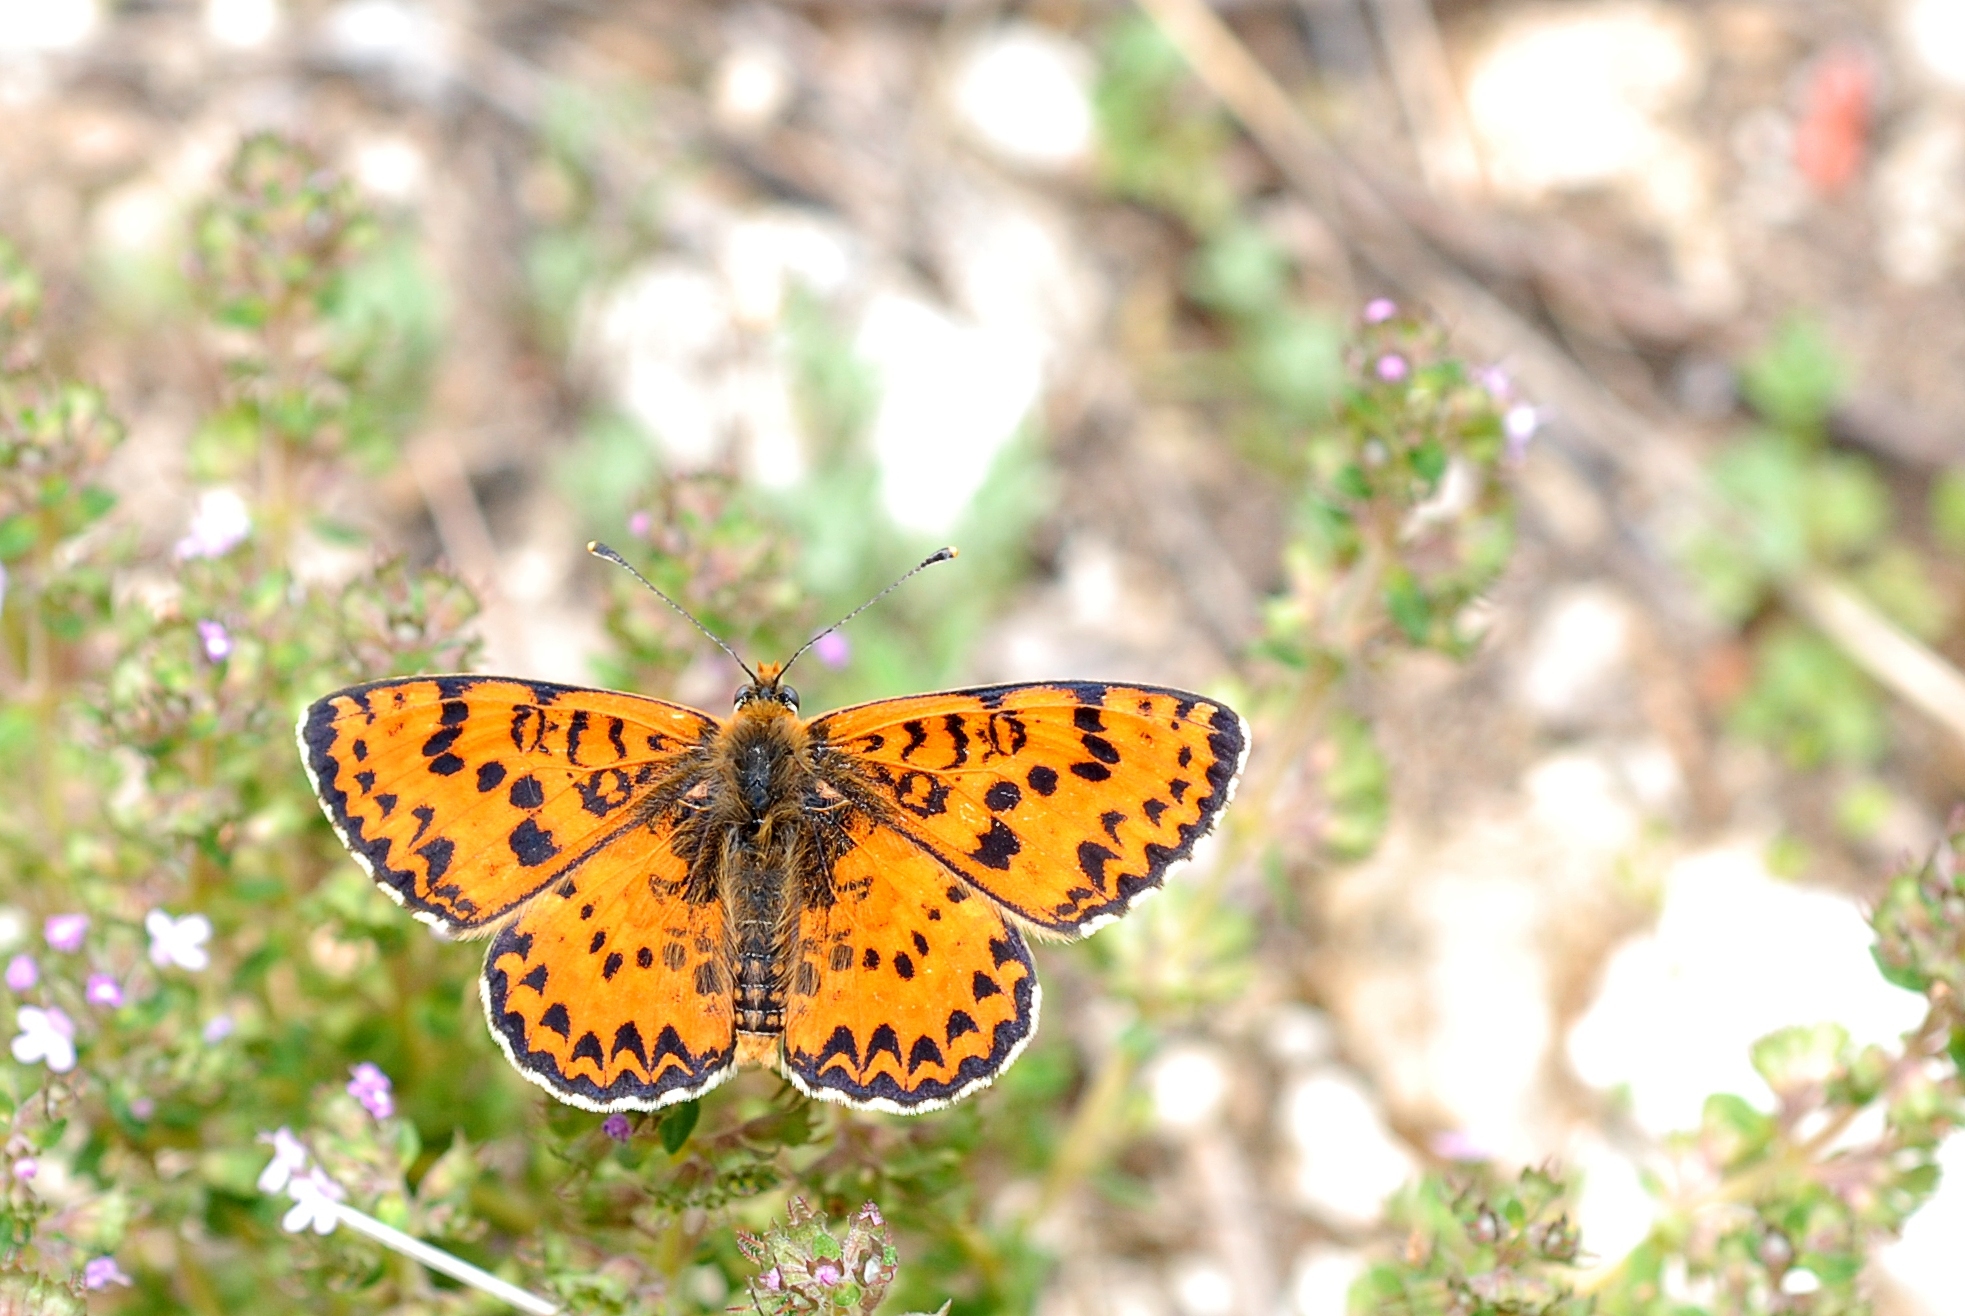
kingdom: Animalia
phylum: Arthropoda
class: Insecta
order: Lepidoptera
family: Nymphalidae
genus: Melitaea
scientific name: Melitaea didyma
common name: Spotted fritillary
